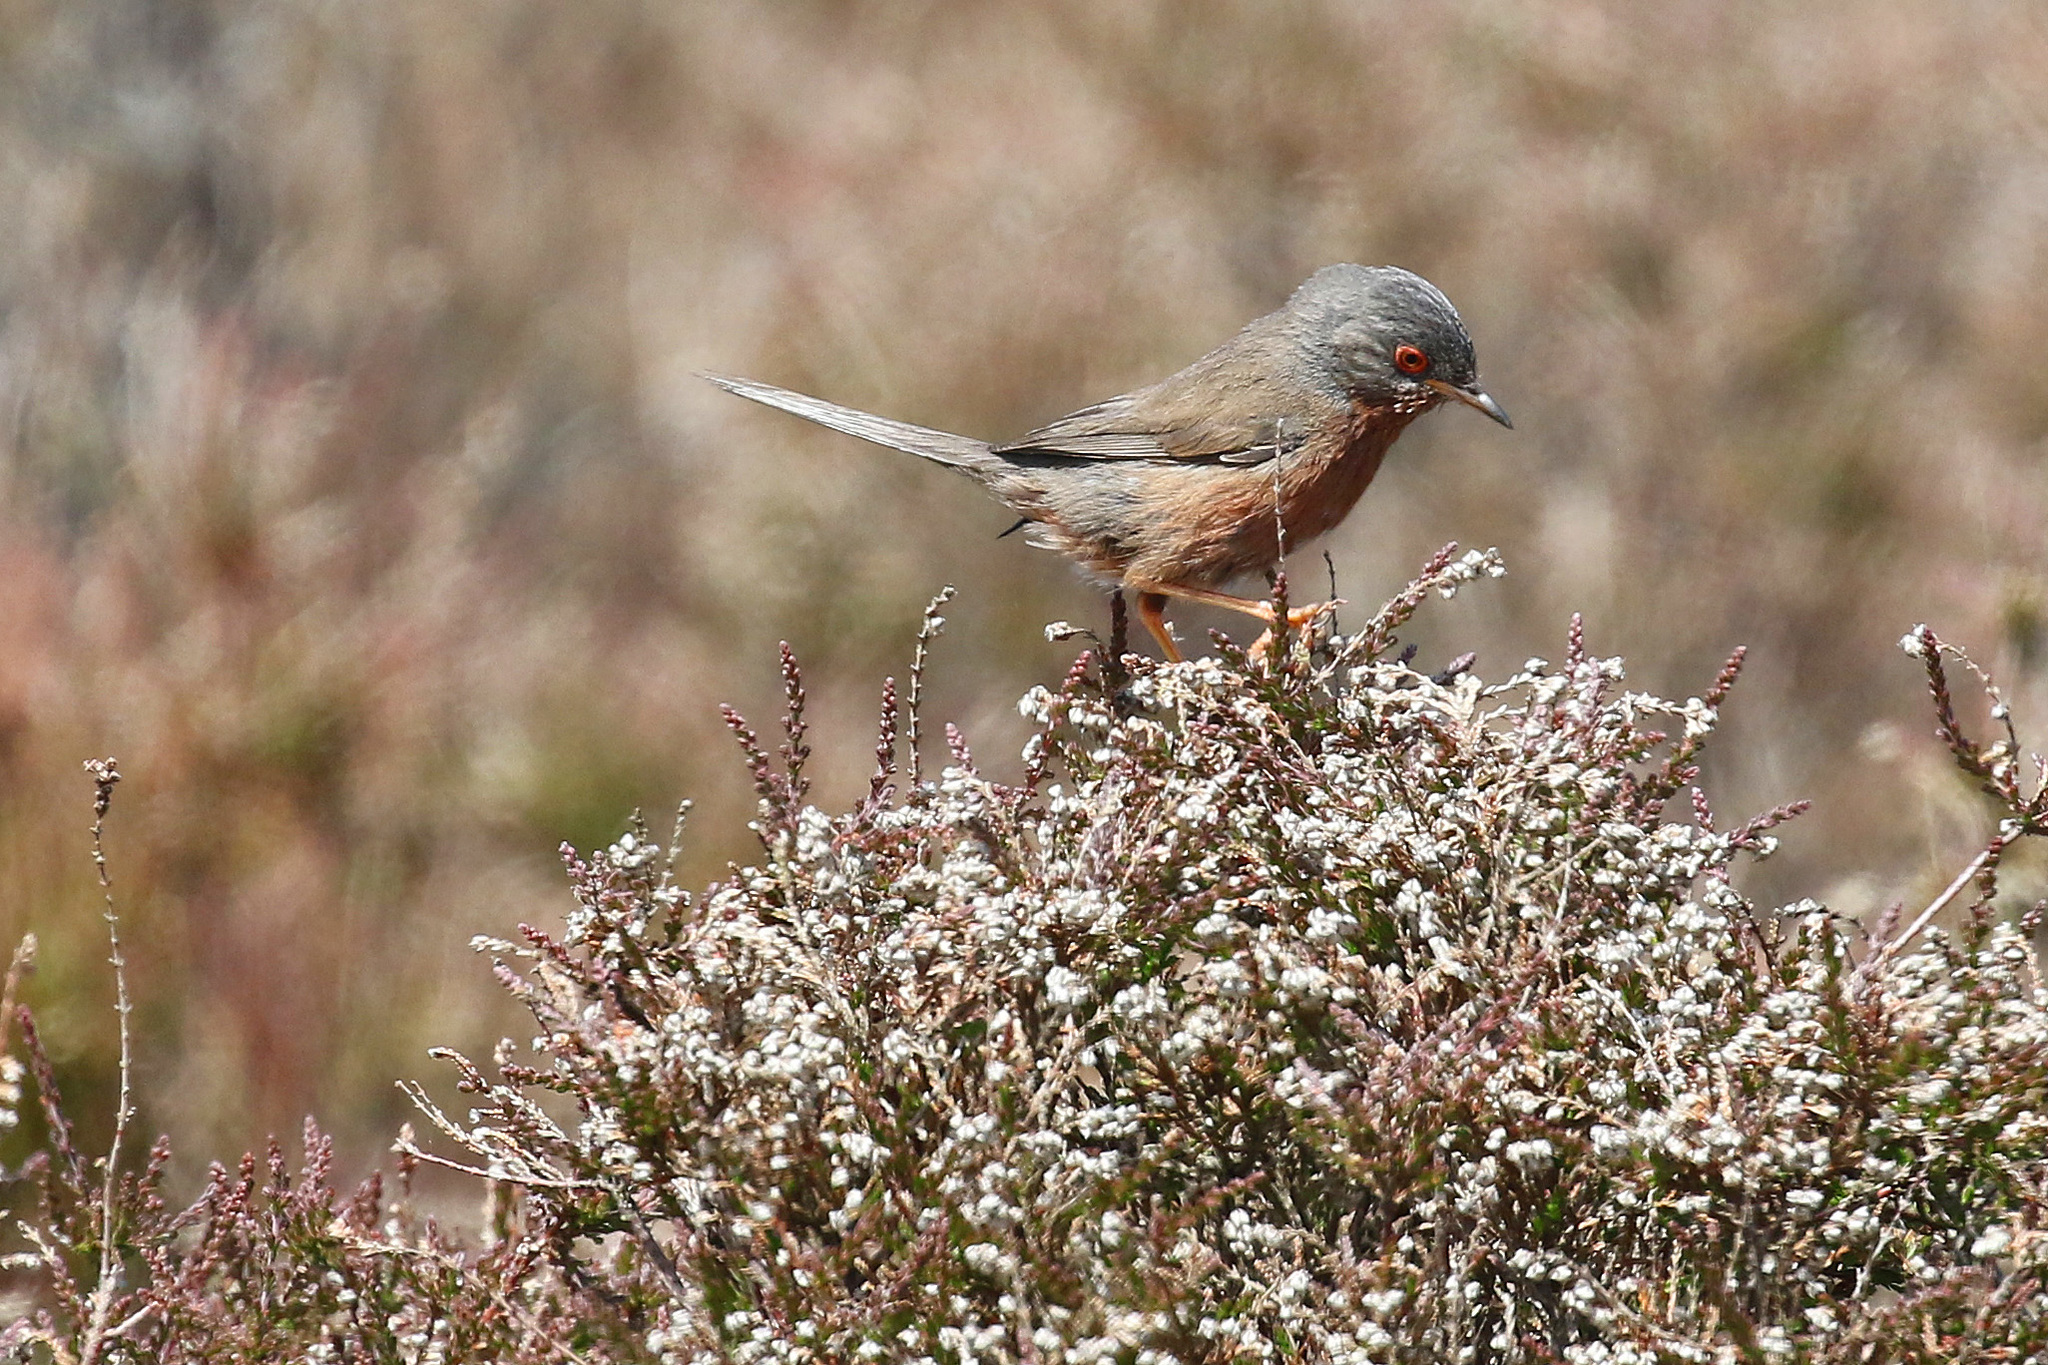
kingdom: Animalia
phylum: Chordata
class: Aves
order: Passeriformes
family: Sylviidae
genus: Sylvia
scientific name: Sylvia undata
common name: Dartford warbler
